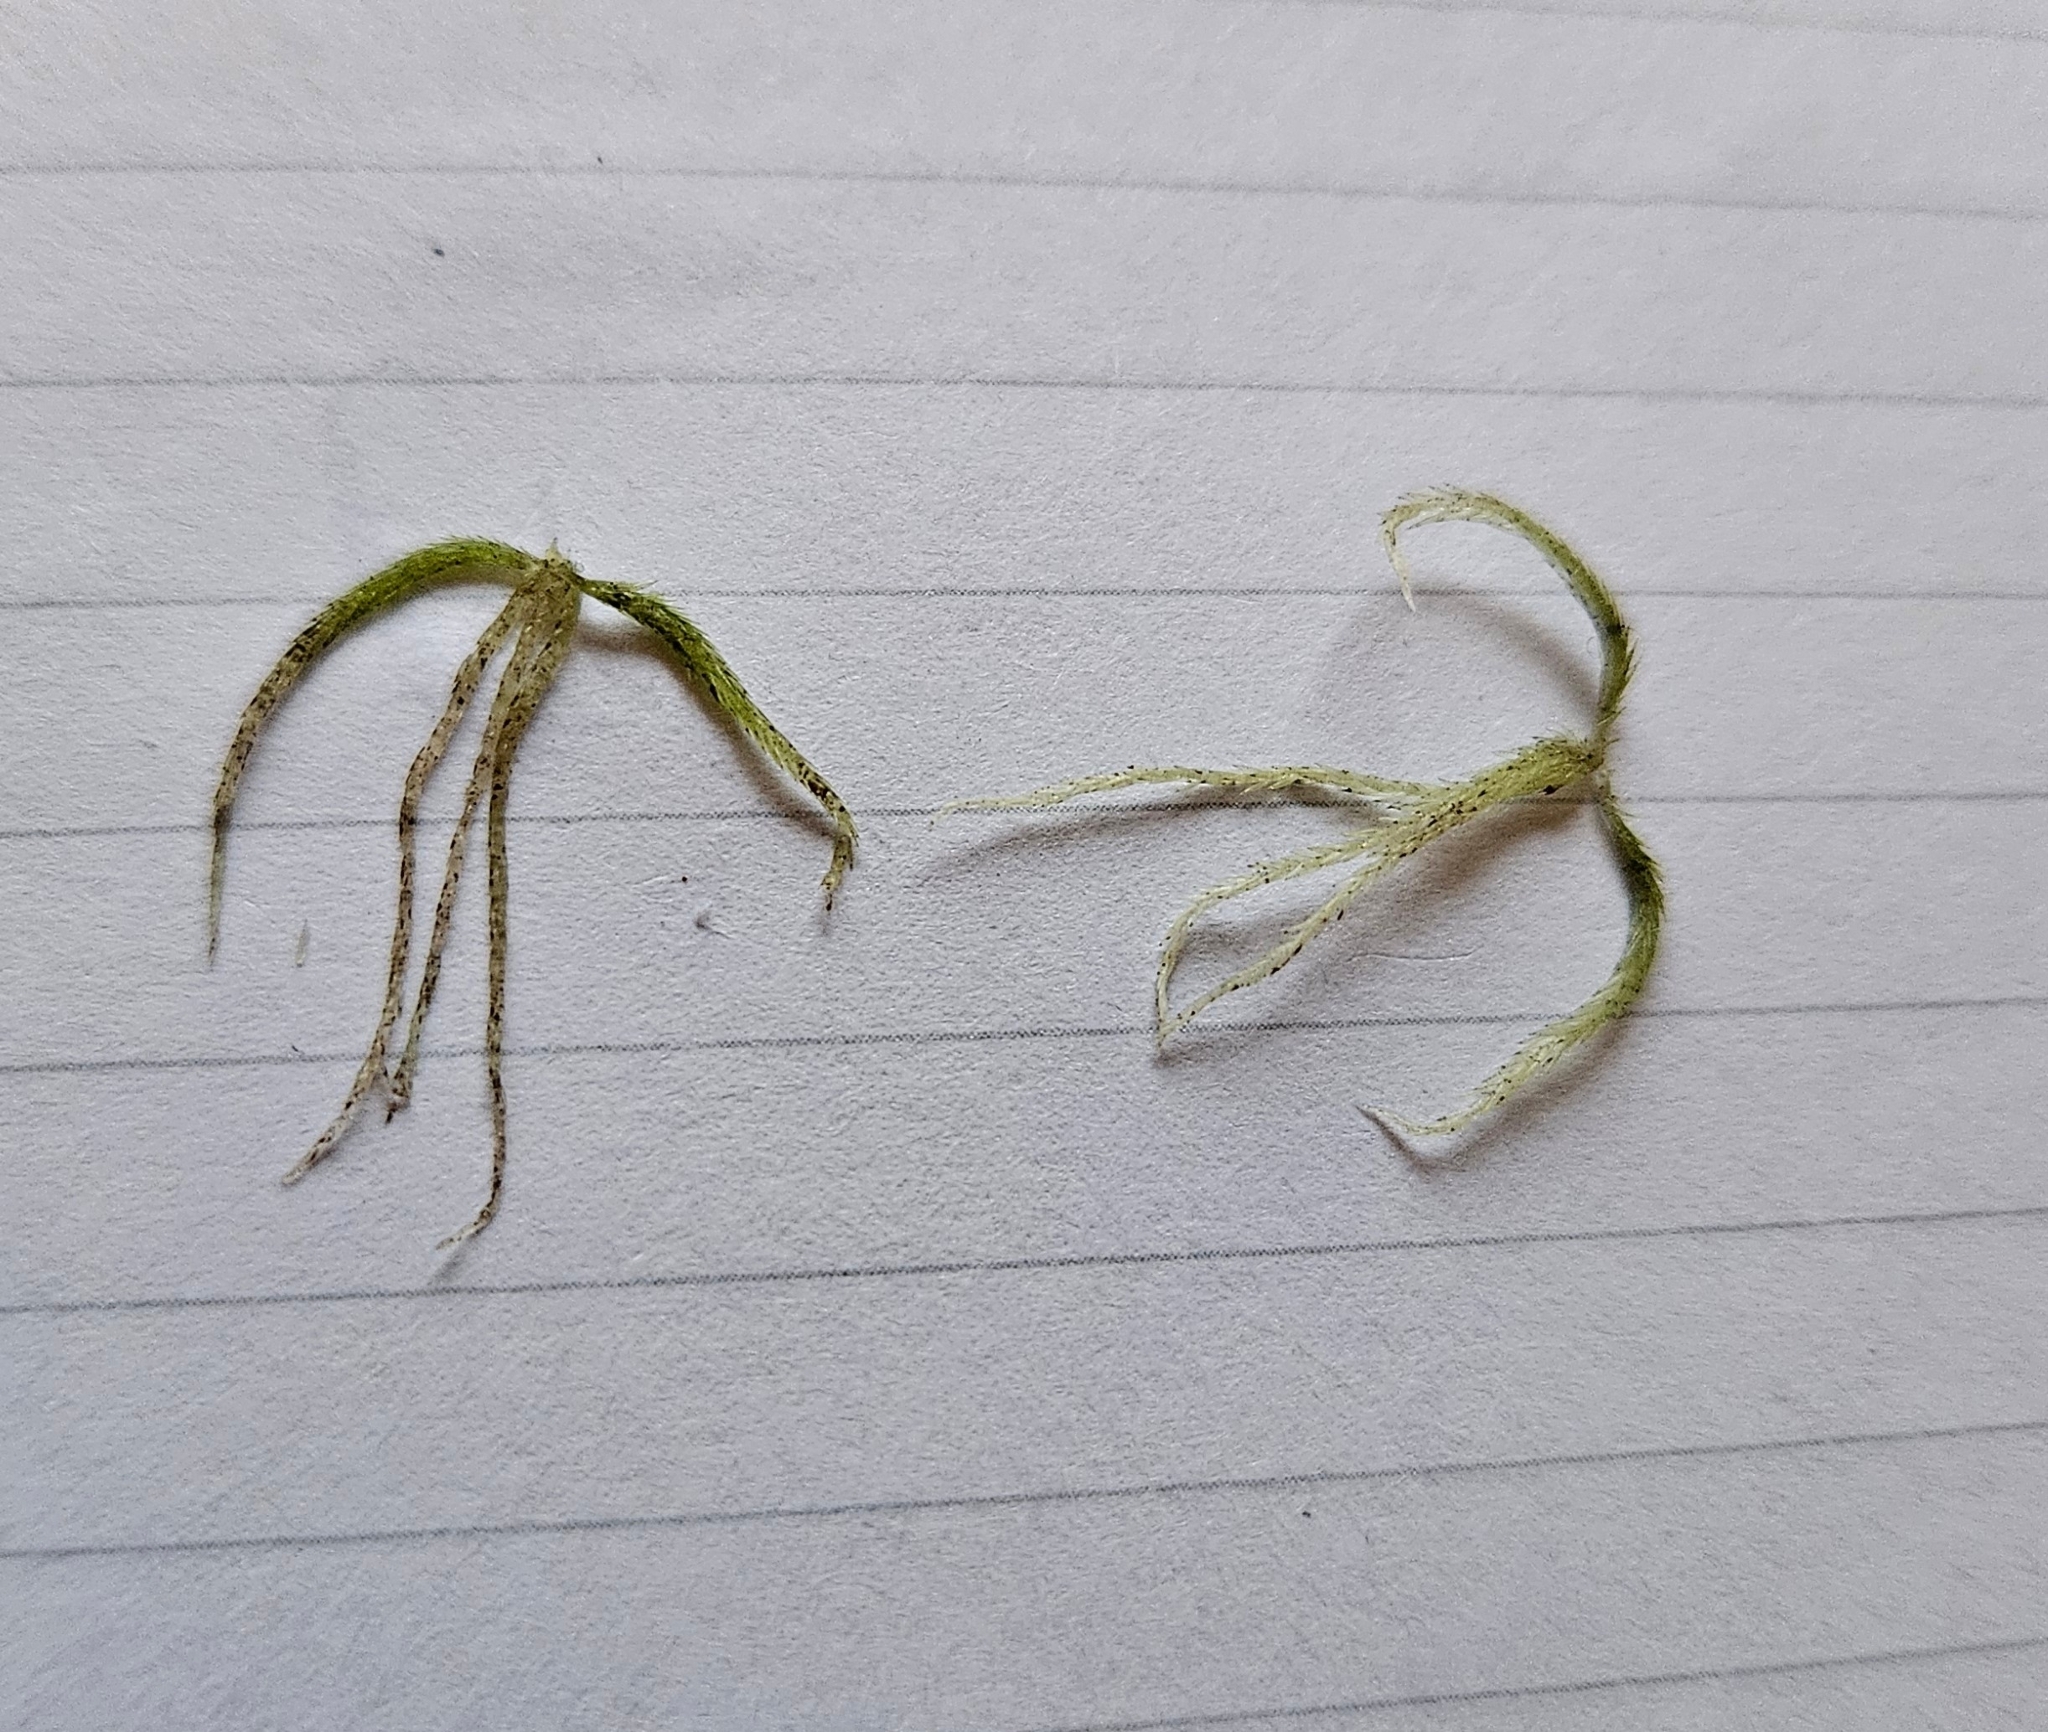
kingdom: Plantae
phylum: Bryophyta
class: Sphagnopsida
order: Sphagnales
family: Sphagnaceae
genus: Sphagnum
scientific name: Sphagnum fallax
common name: Flat-top peat moss
